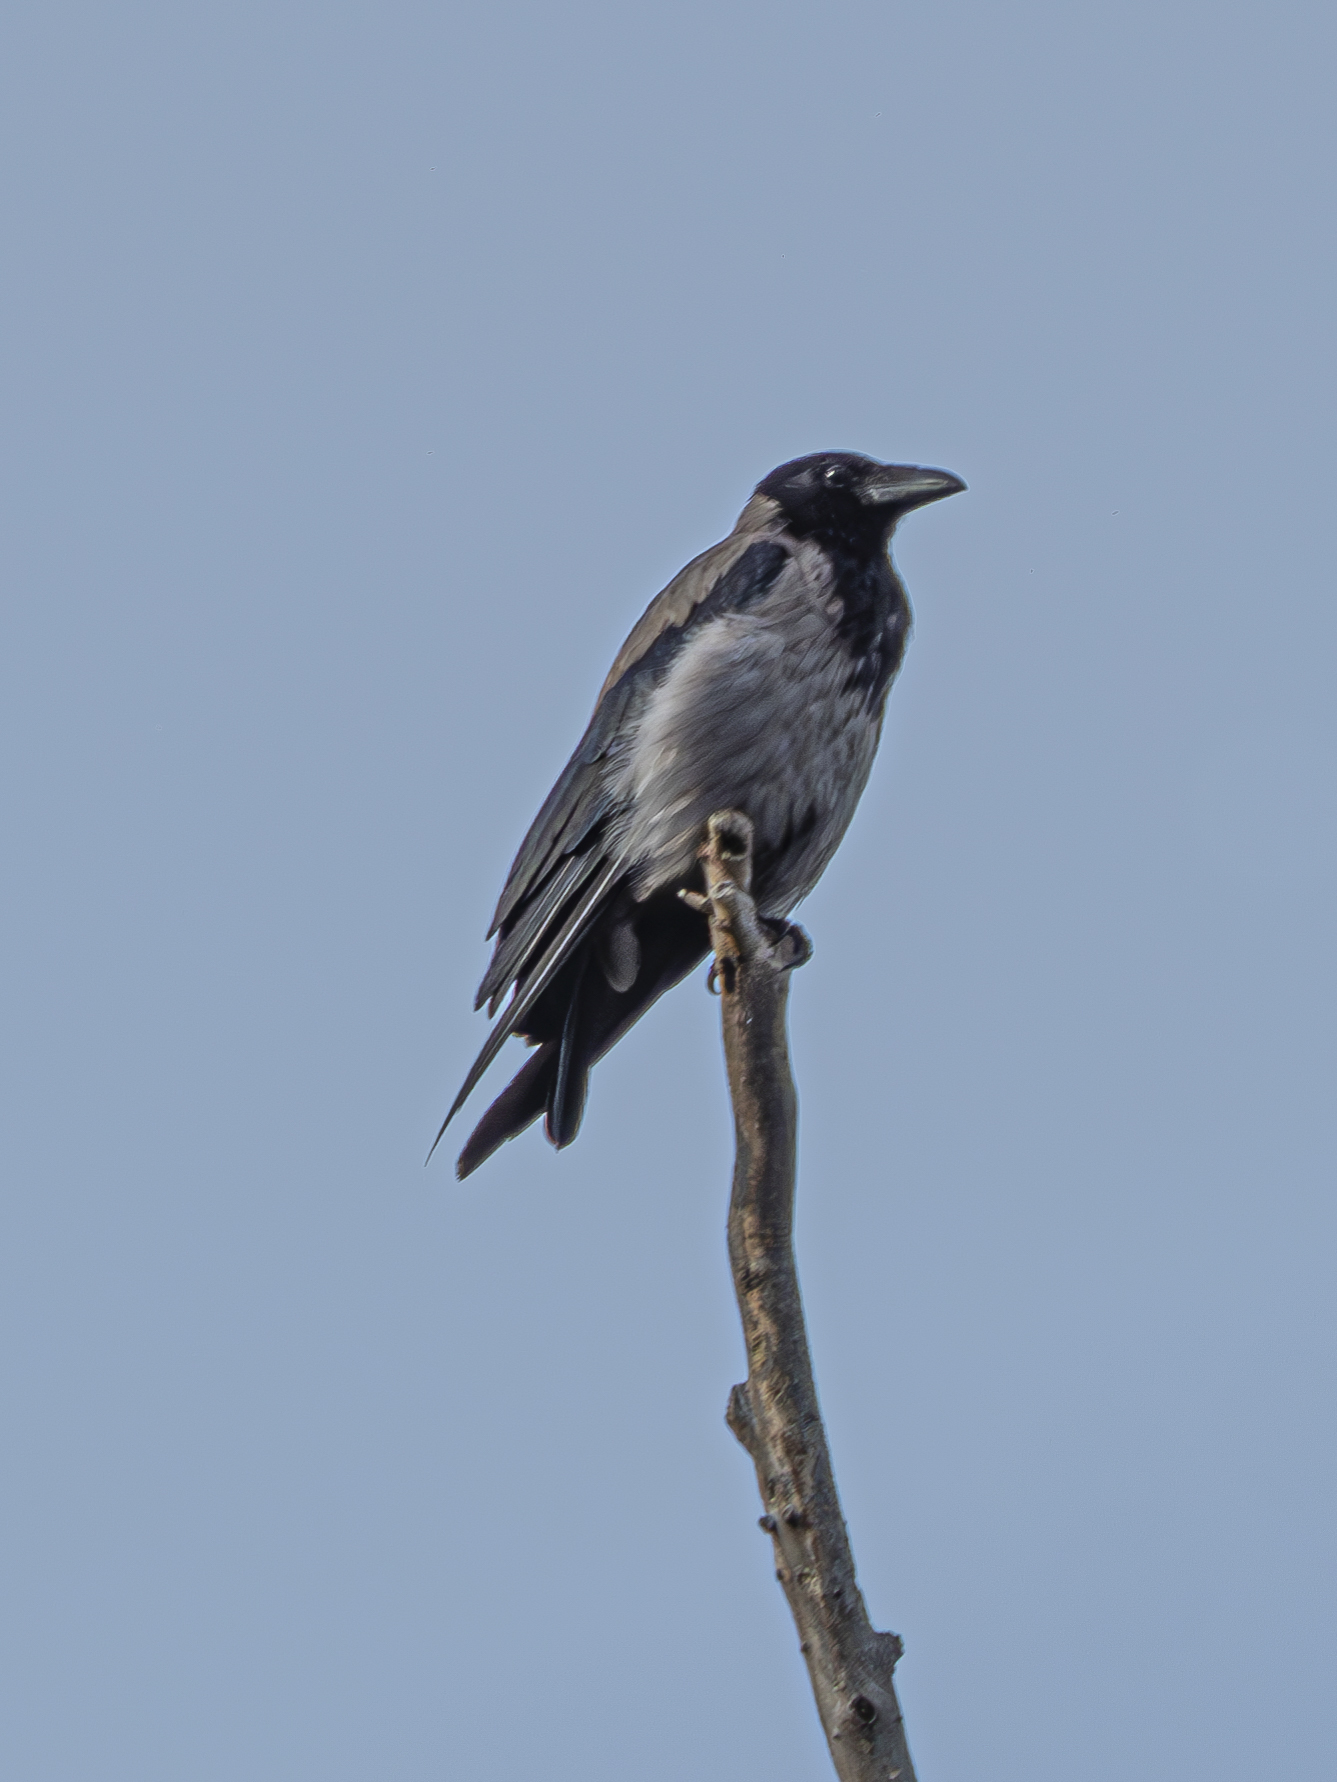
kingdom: Animalia
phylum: Chordata
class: Aves
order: Passeriformes
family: Corvidae
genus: Corvus
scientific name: Corvus cornix
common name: Hooded crow
